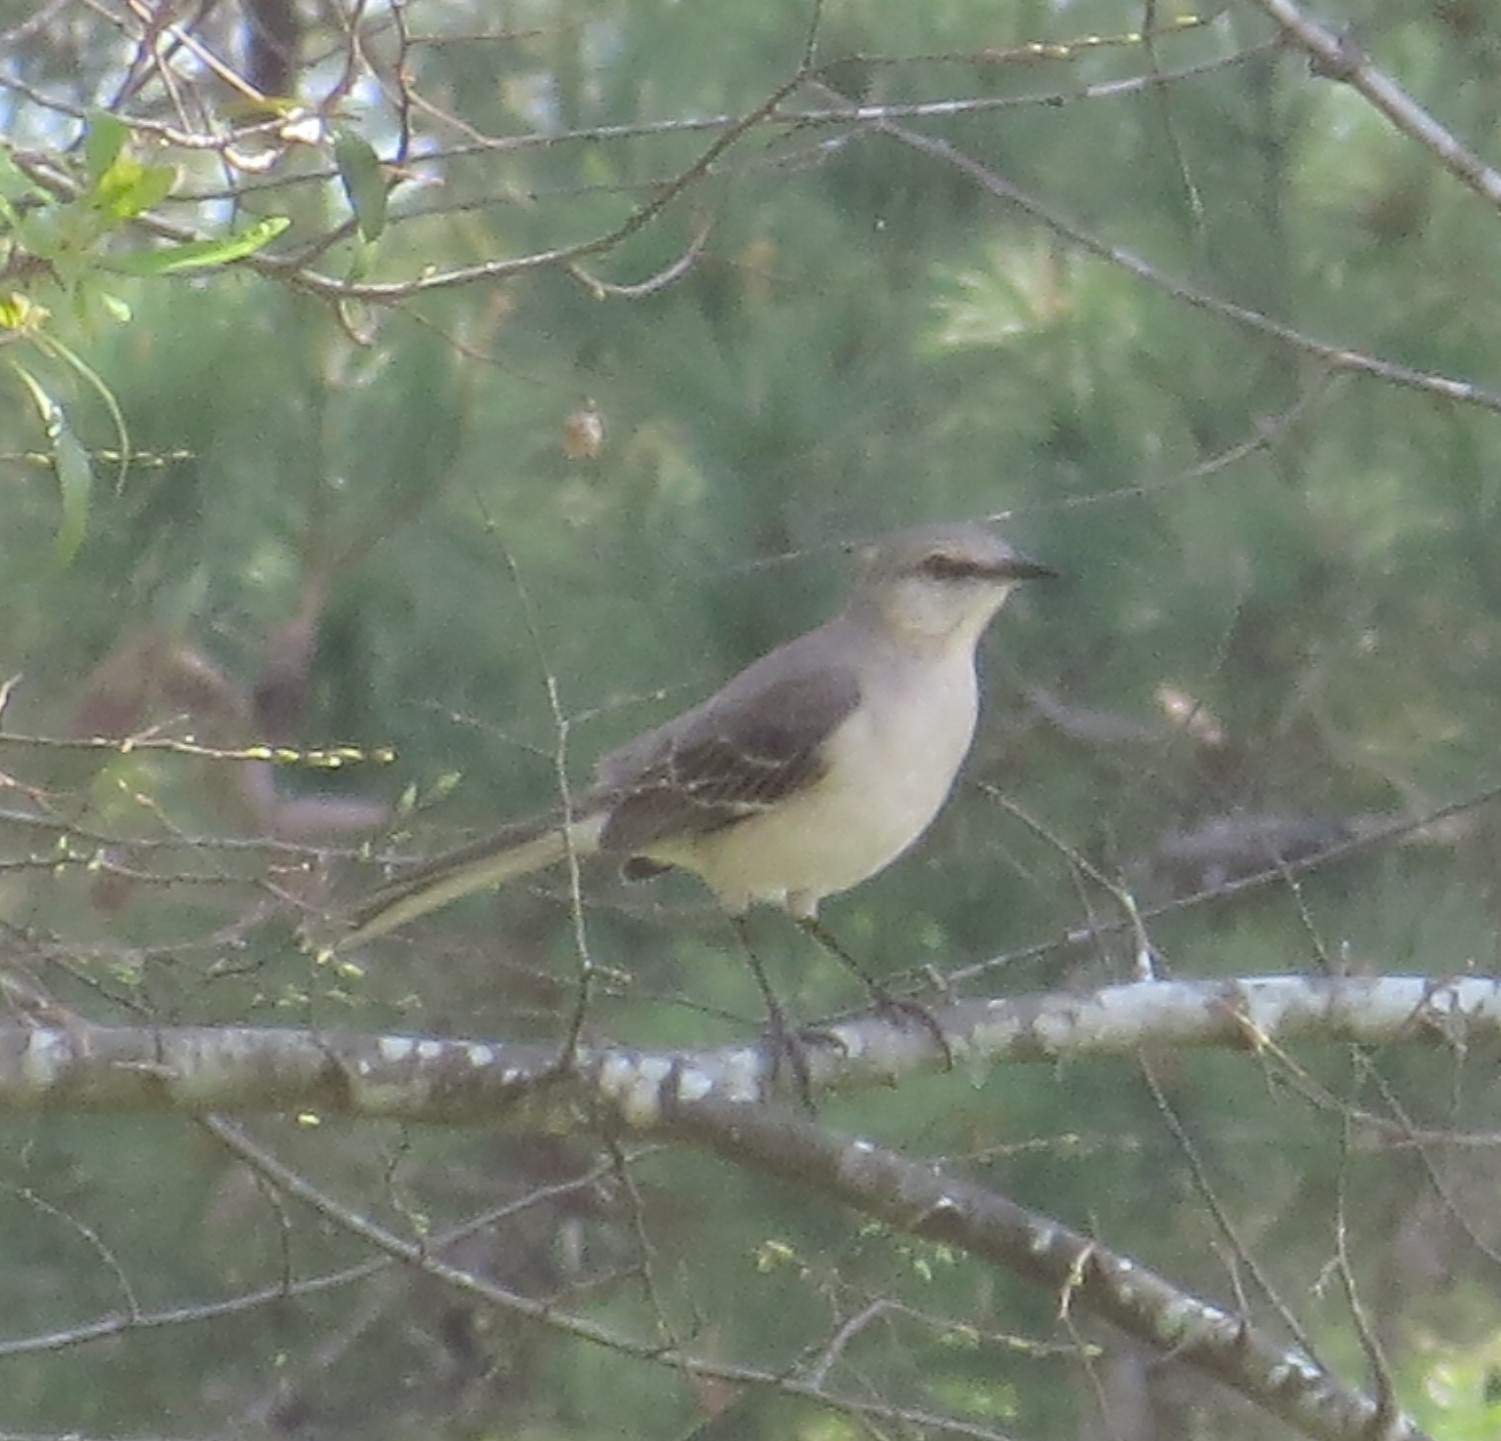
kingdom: Animalia
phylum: Chordata
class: Aves
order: Passeriformes
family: Mimidae
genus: Mimus
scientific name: Mimus polyglottos
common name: Northern mockingbird
